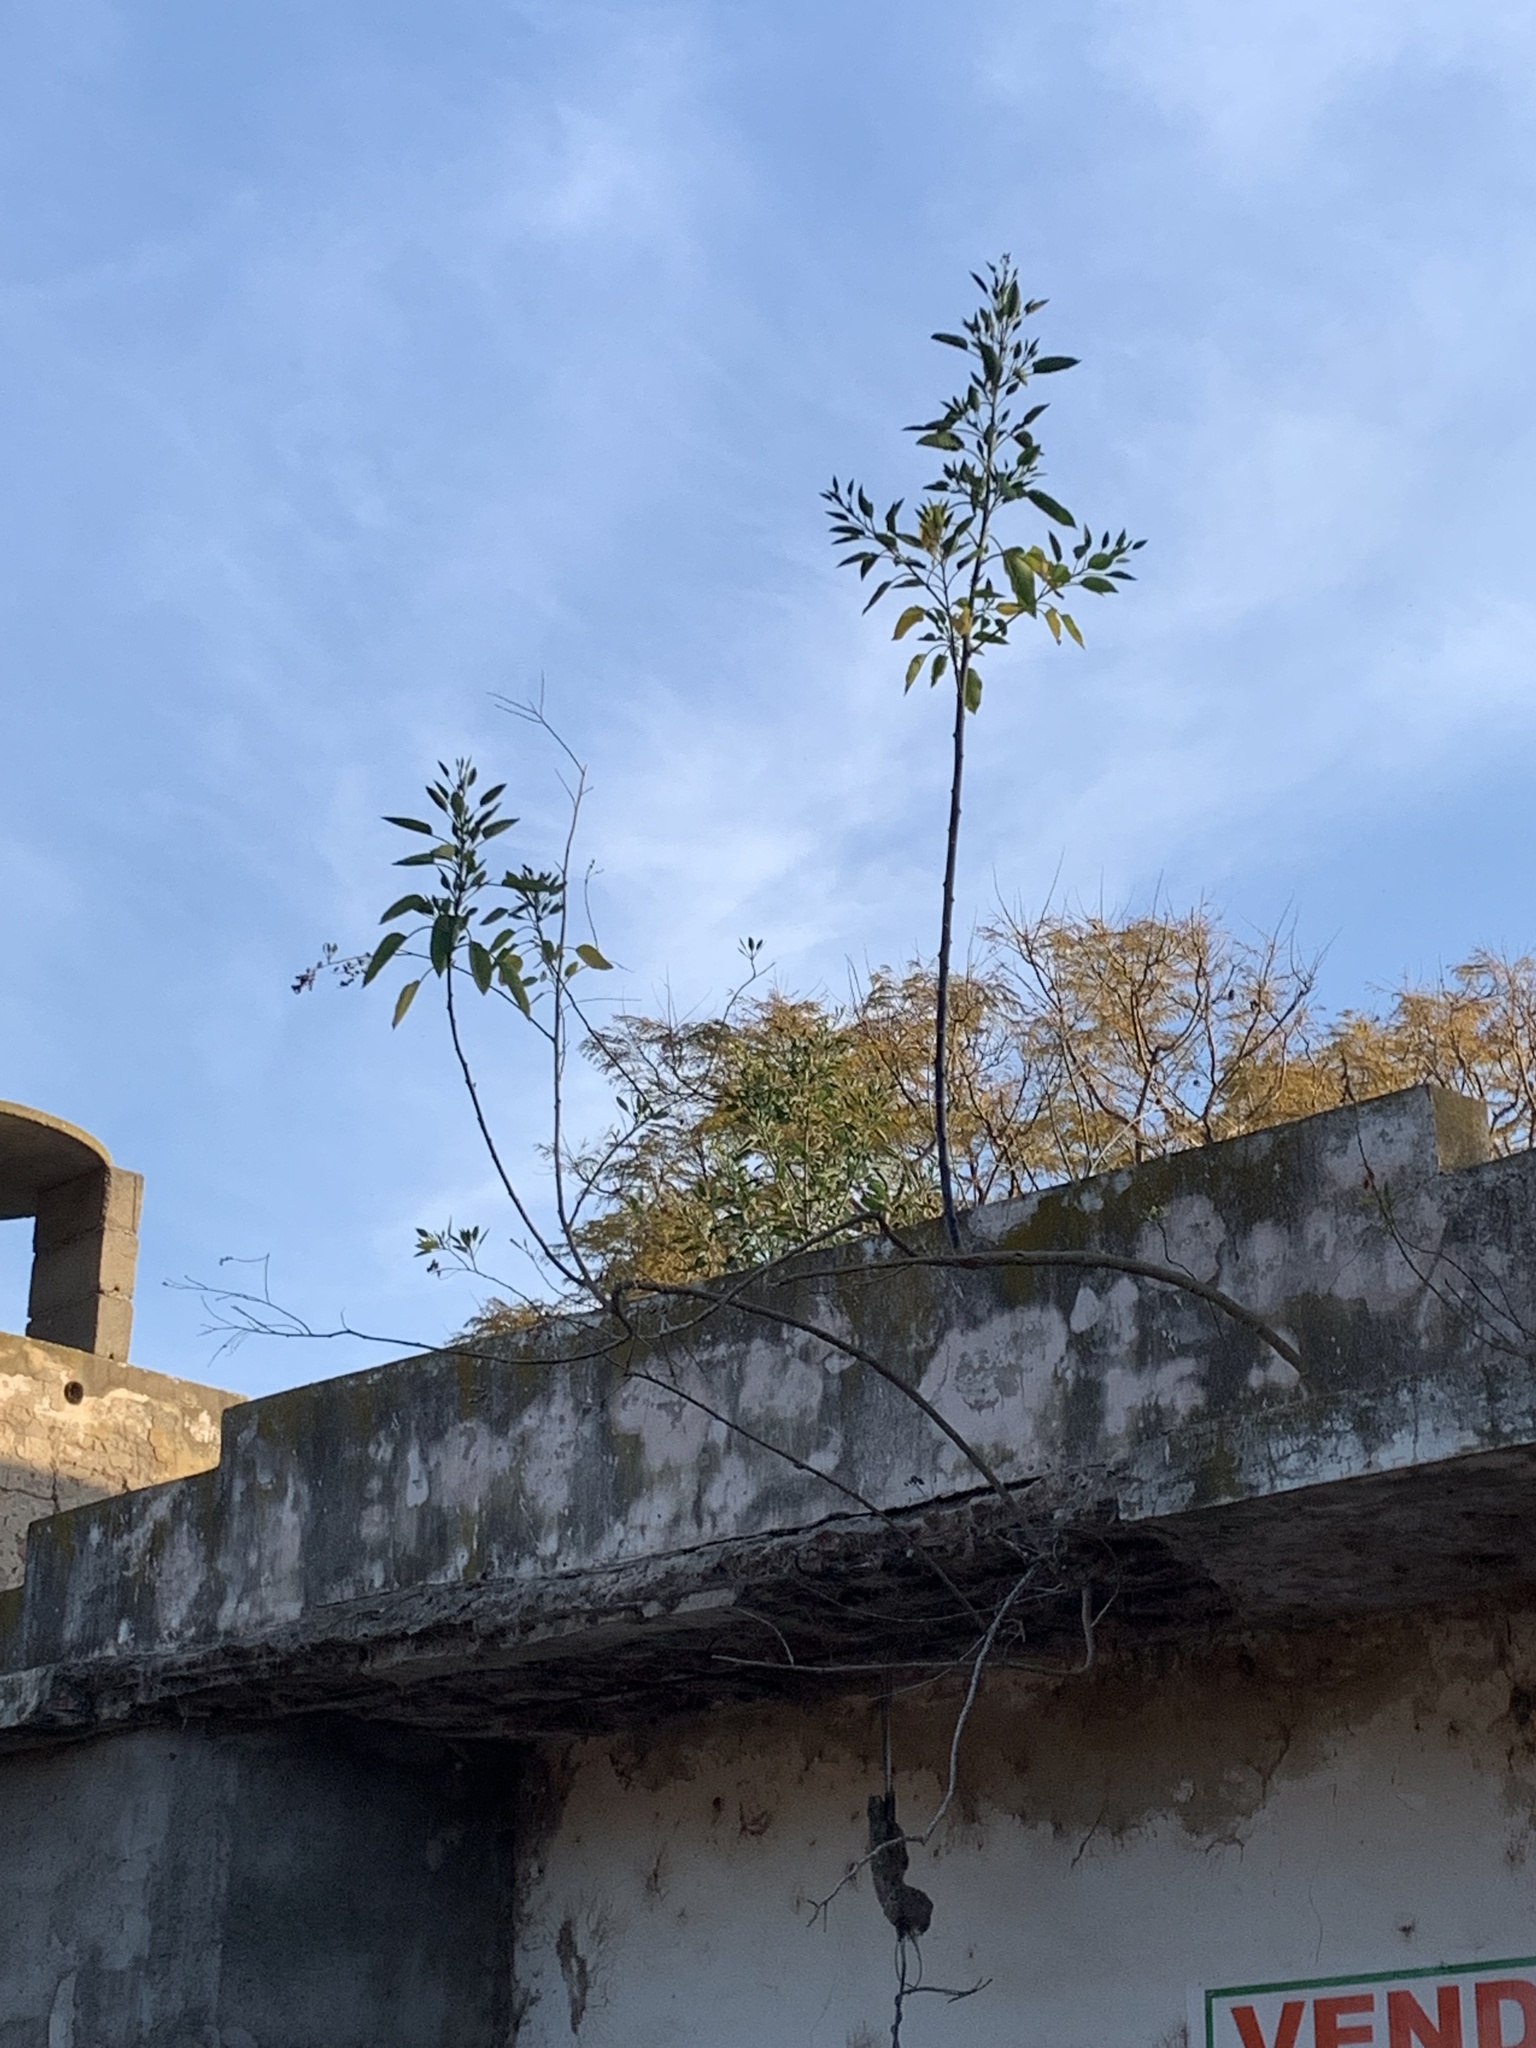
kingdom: Plantae
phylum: Tracheophyta
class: Magnoliopsida
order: Solanales
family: Solanaceae
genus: Nicotiana
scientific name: Nicotiana glauca
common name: Tree tobacco
